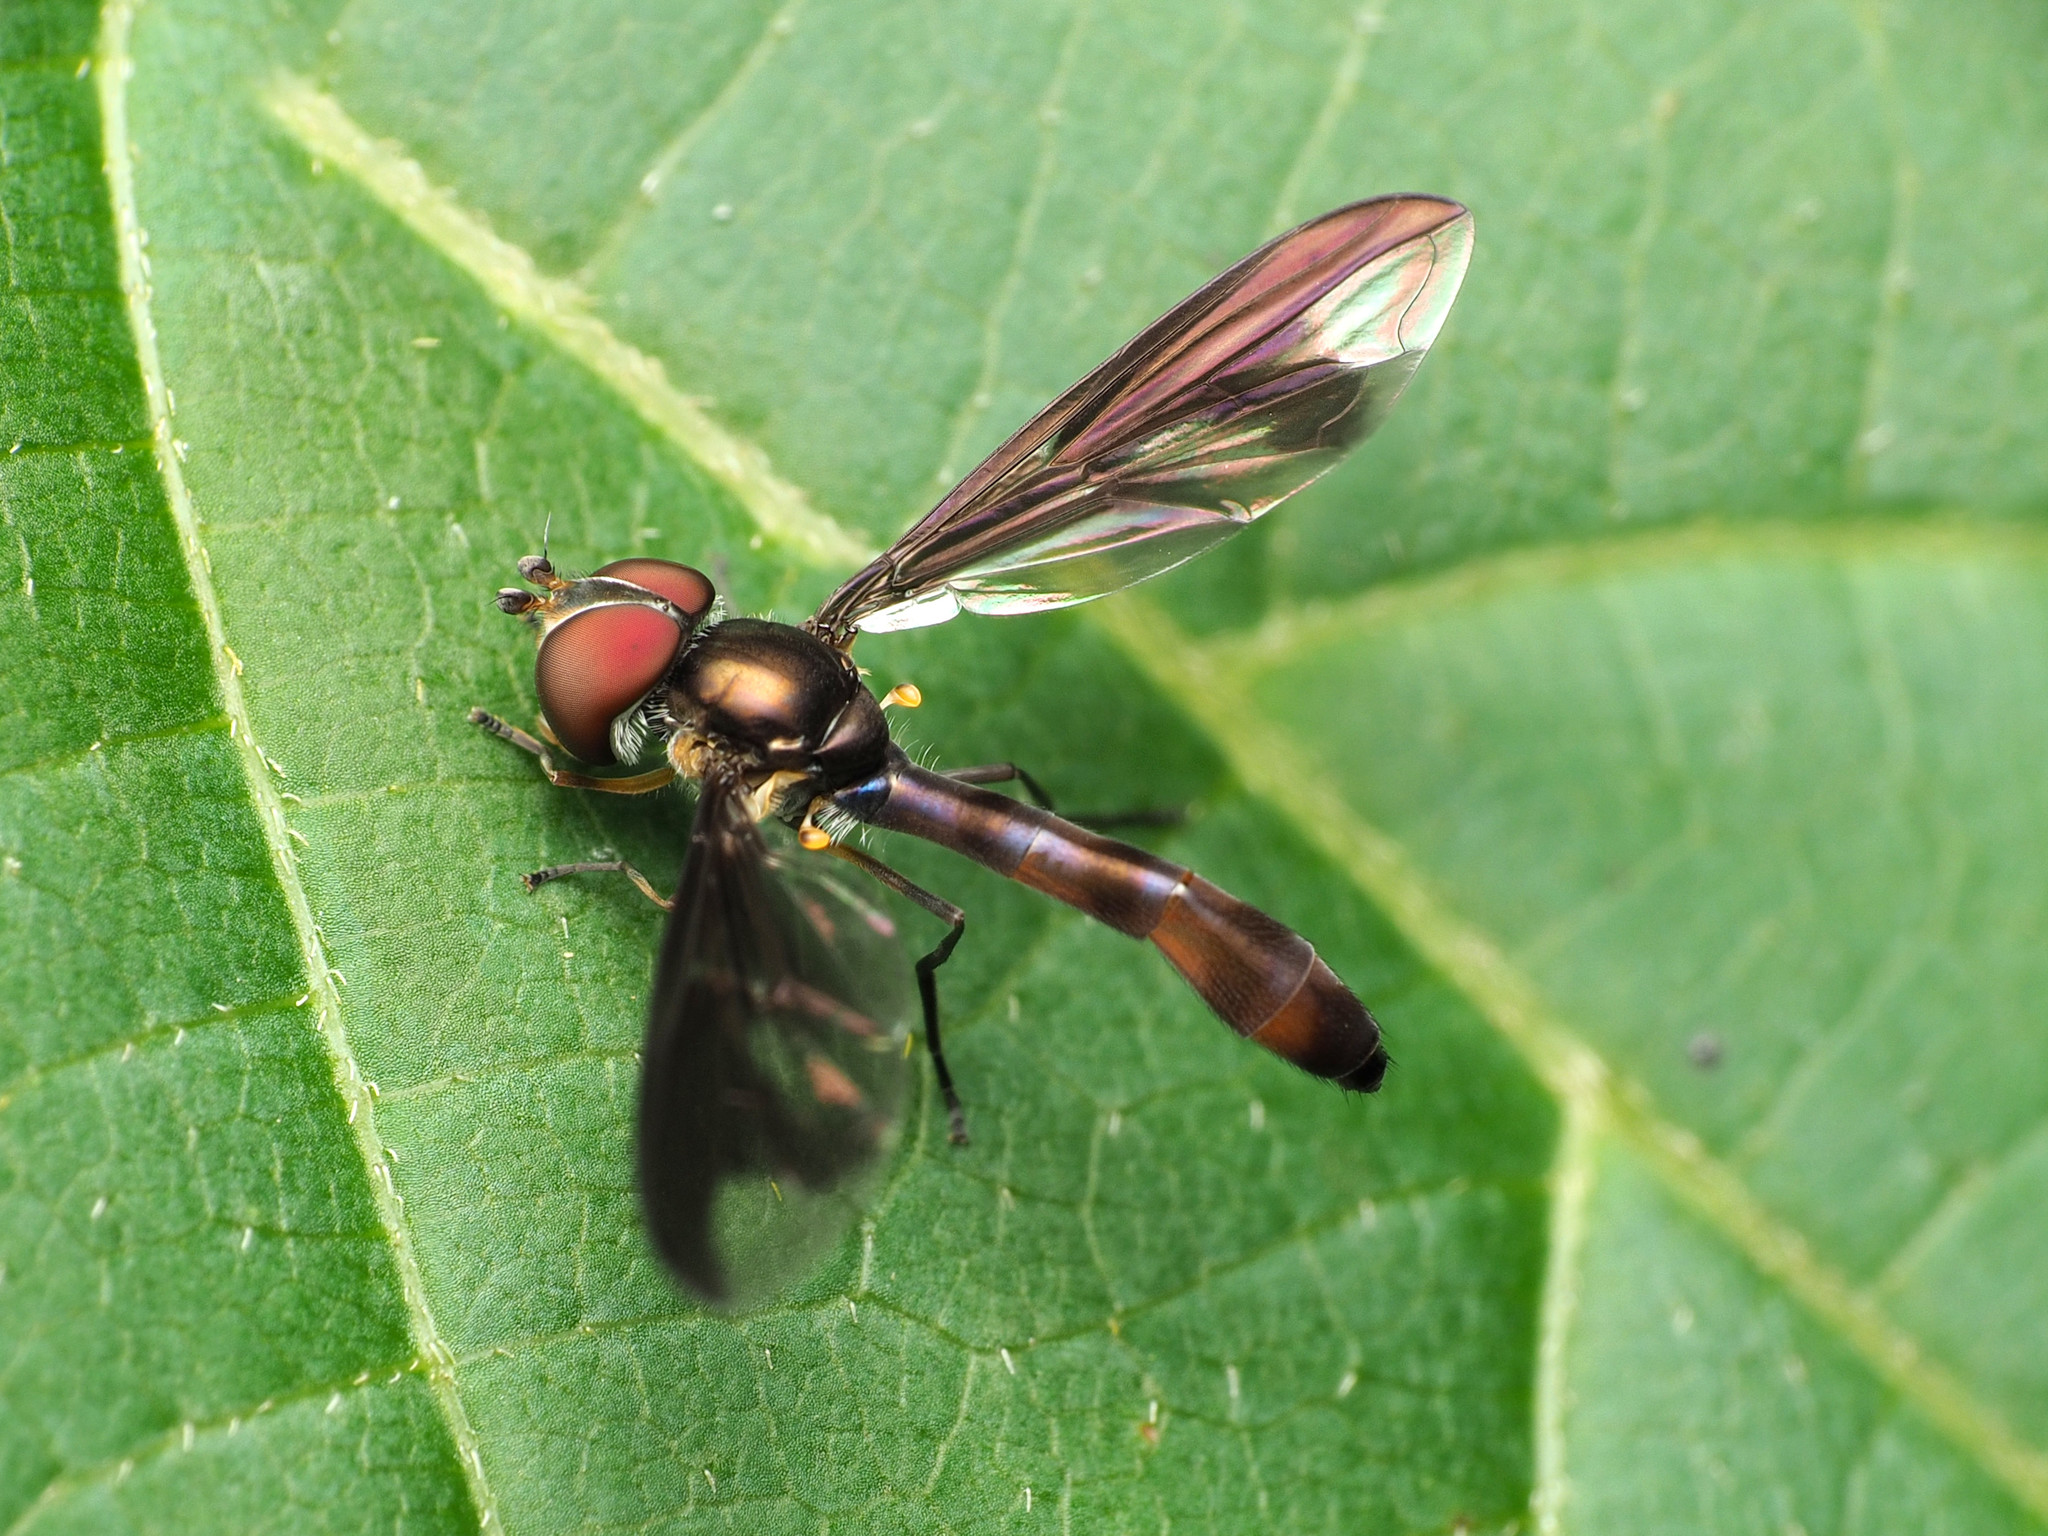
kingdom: Animalia
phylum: Arthropoda
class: Insecta
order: Diptera
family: Syrphidae
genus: Ocyptamus
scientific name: Ocyptamus fuscipennis
